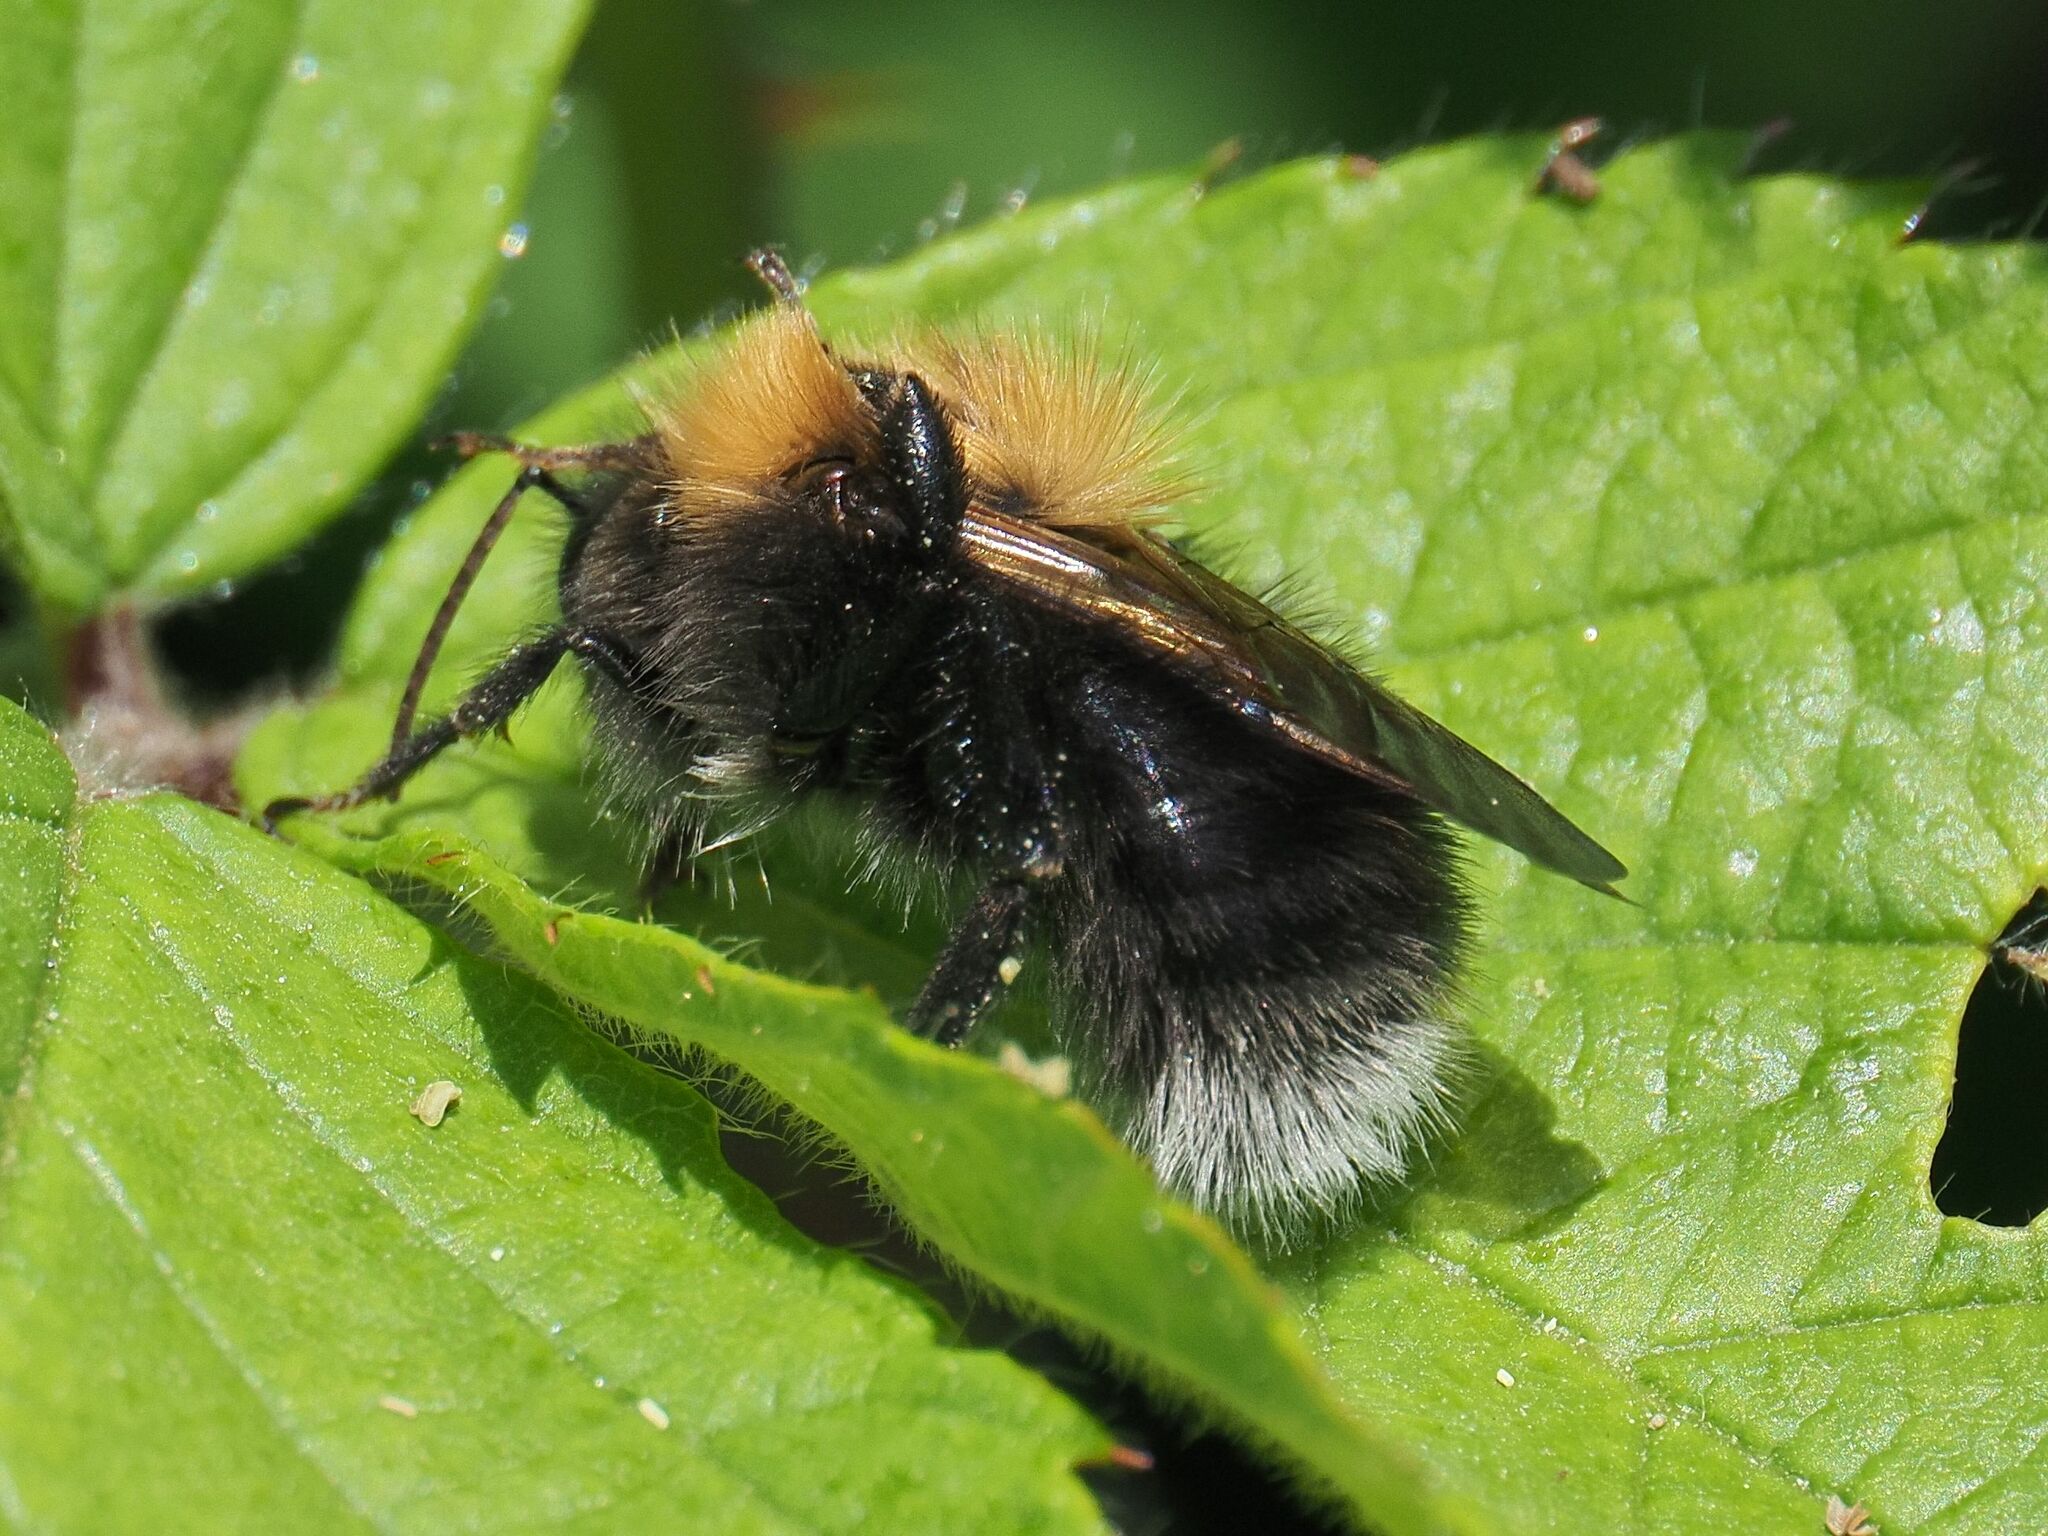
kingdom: Animalia
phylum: Arthropoda
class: Insecta
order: Hymenoptera
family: Apidae
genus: Bombus
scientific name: Bombus hypnorum
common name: New garden bumblebee
